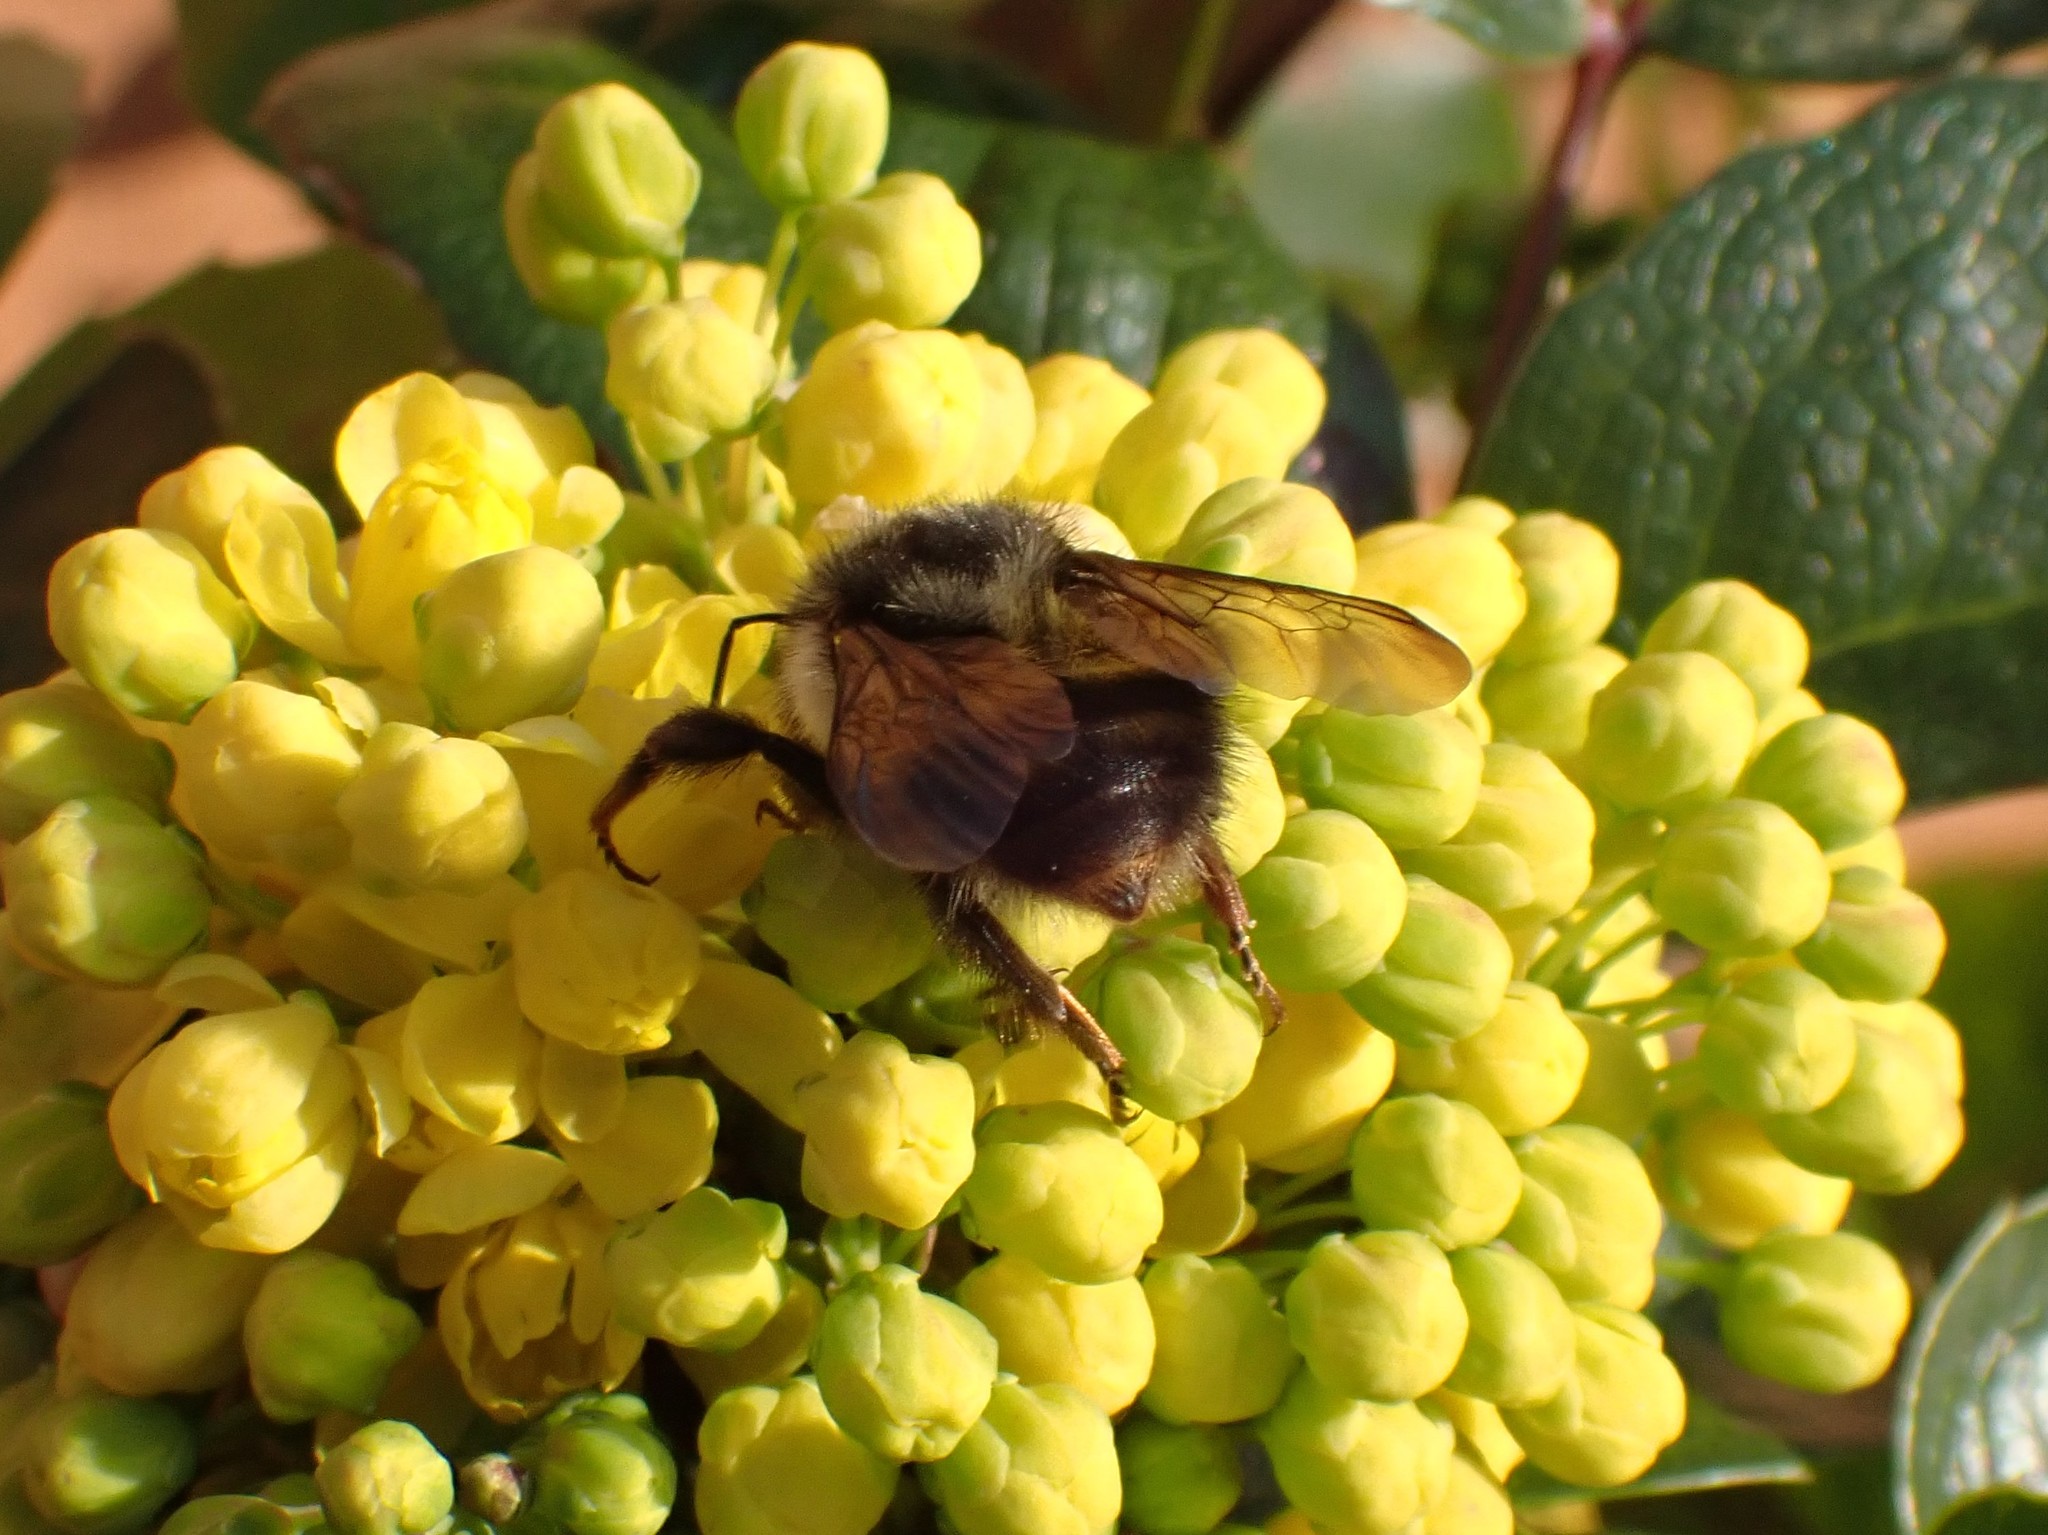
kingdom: Animalia
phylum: Arthropoda
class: Insecta
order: Hymenoptera
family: Apidae
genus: Bombus
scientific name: Bombus sitkensis
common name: Sitka bumble bee
